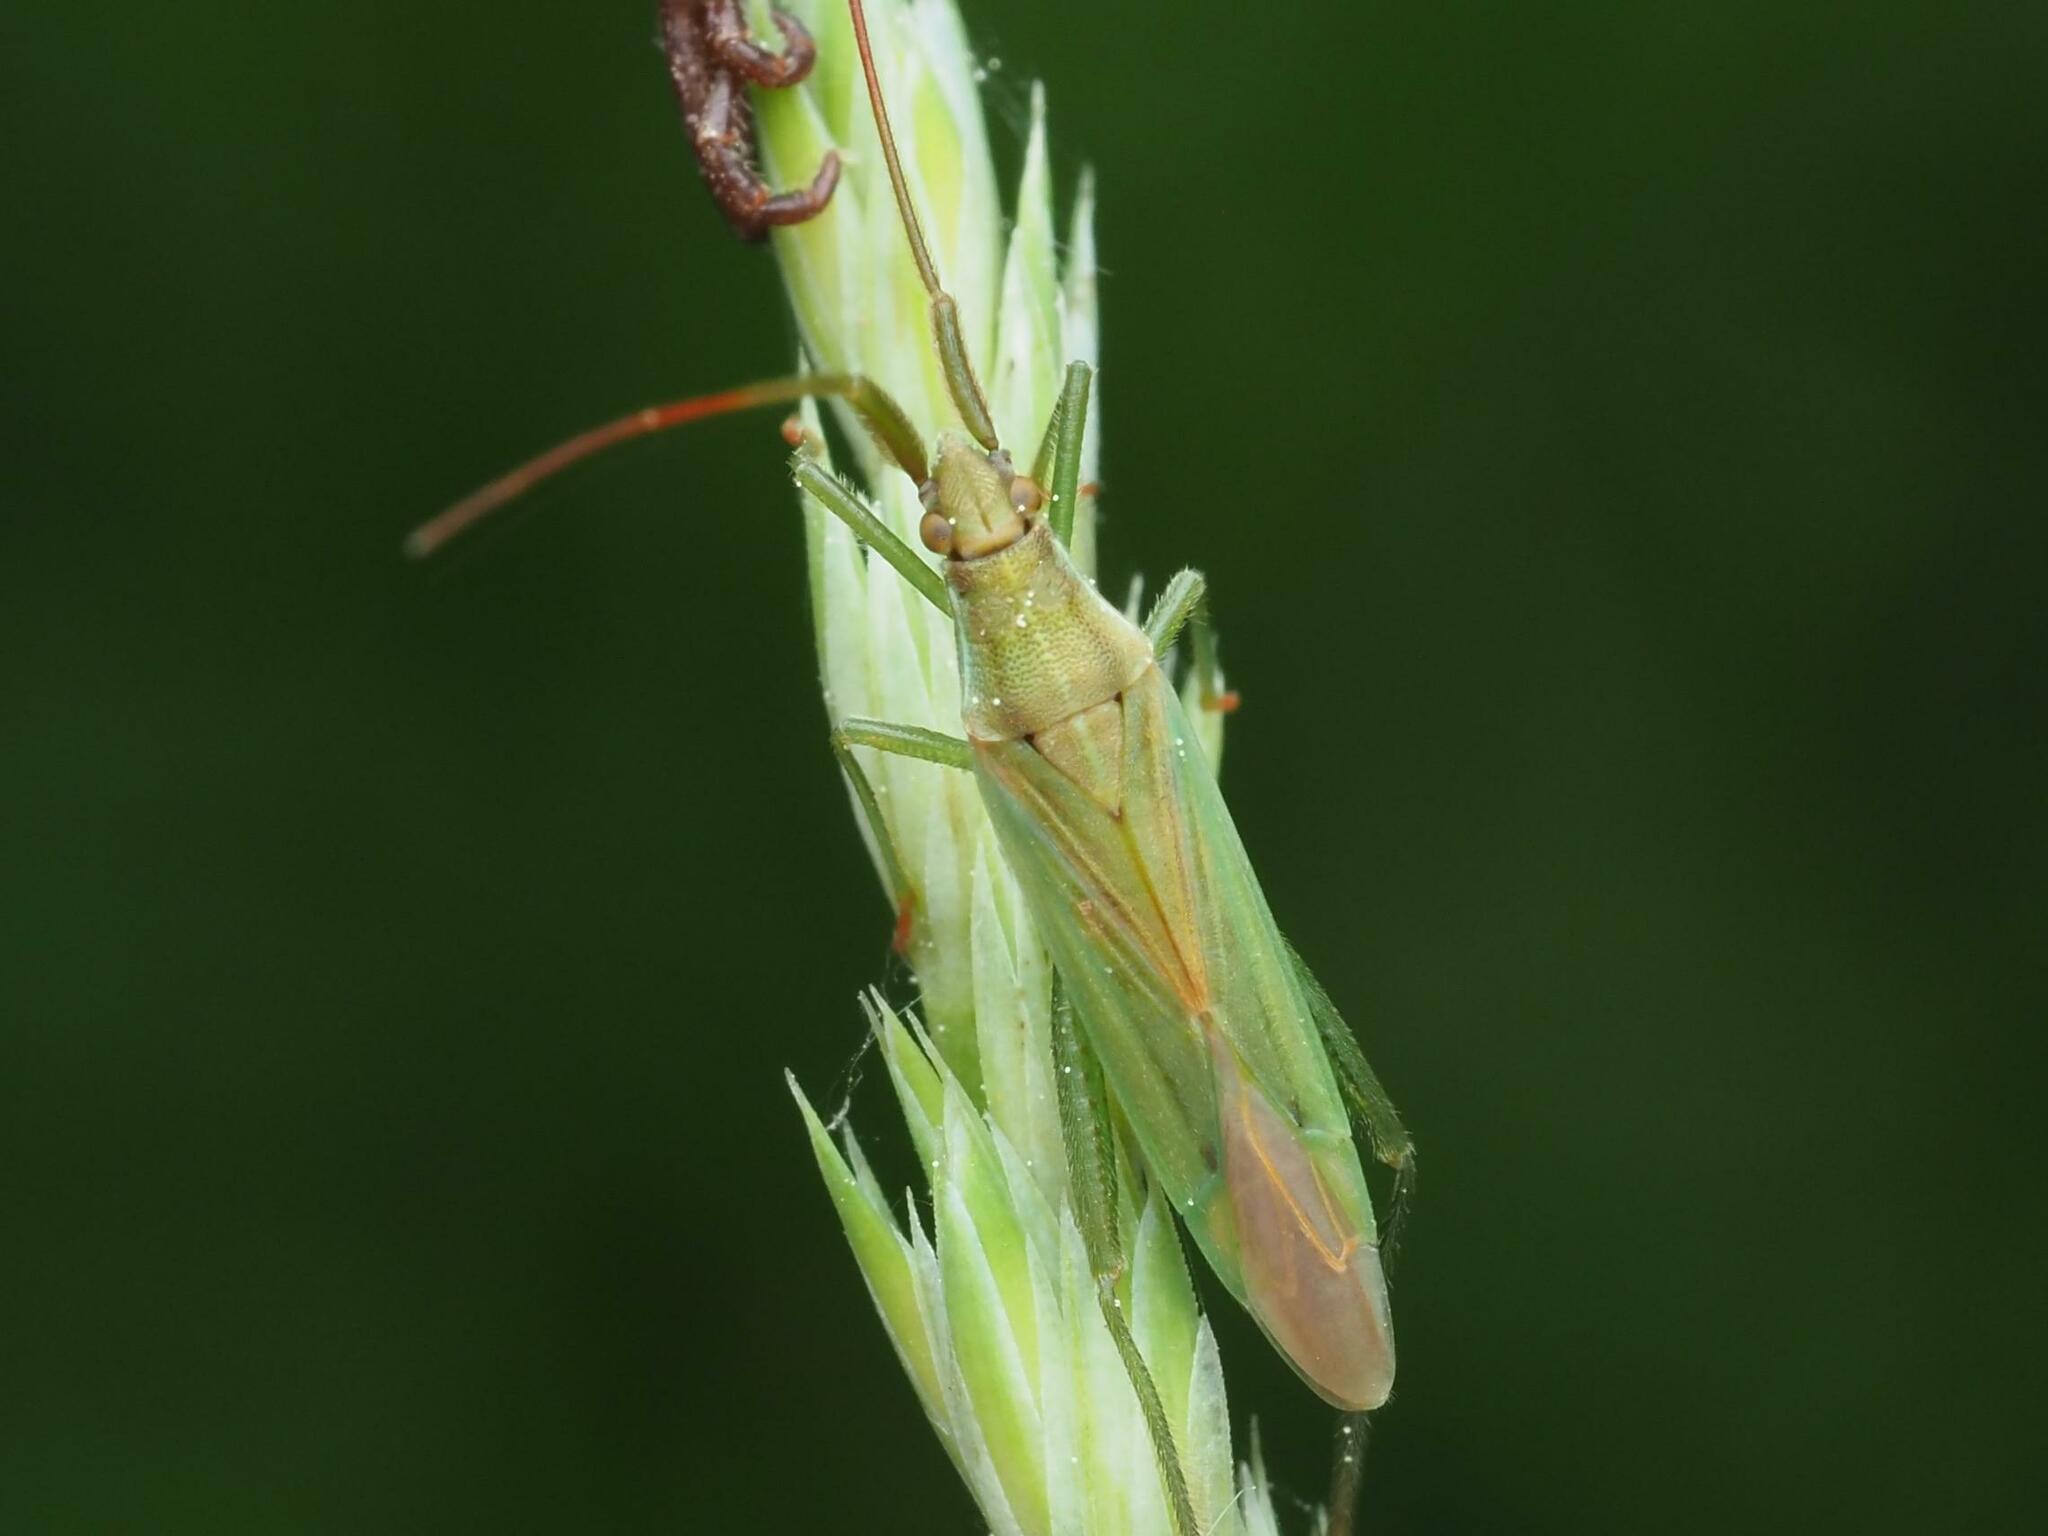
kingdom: Animalia
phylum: Arthropoda
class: Insecta
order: Hemiptera
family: Miridae
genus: Stenodema
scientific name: Stenodema laevigata
